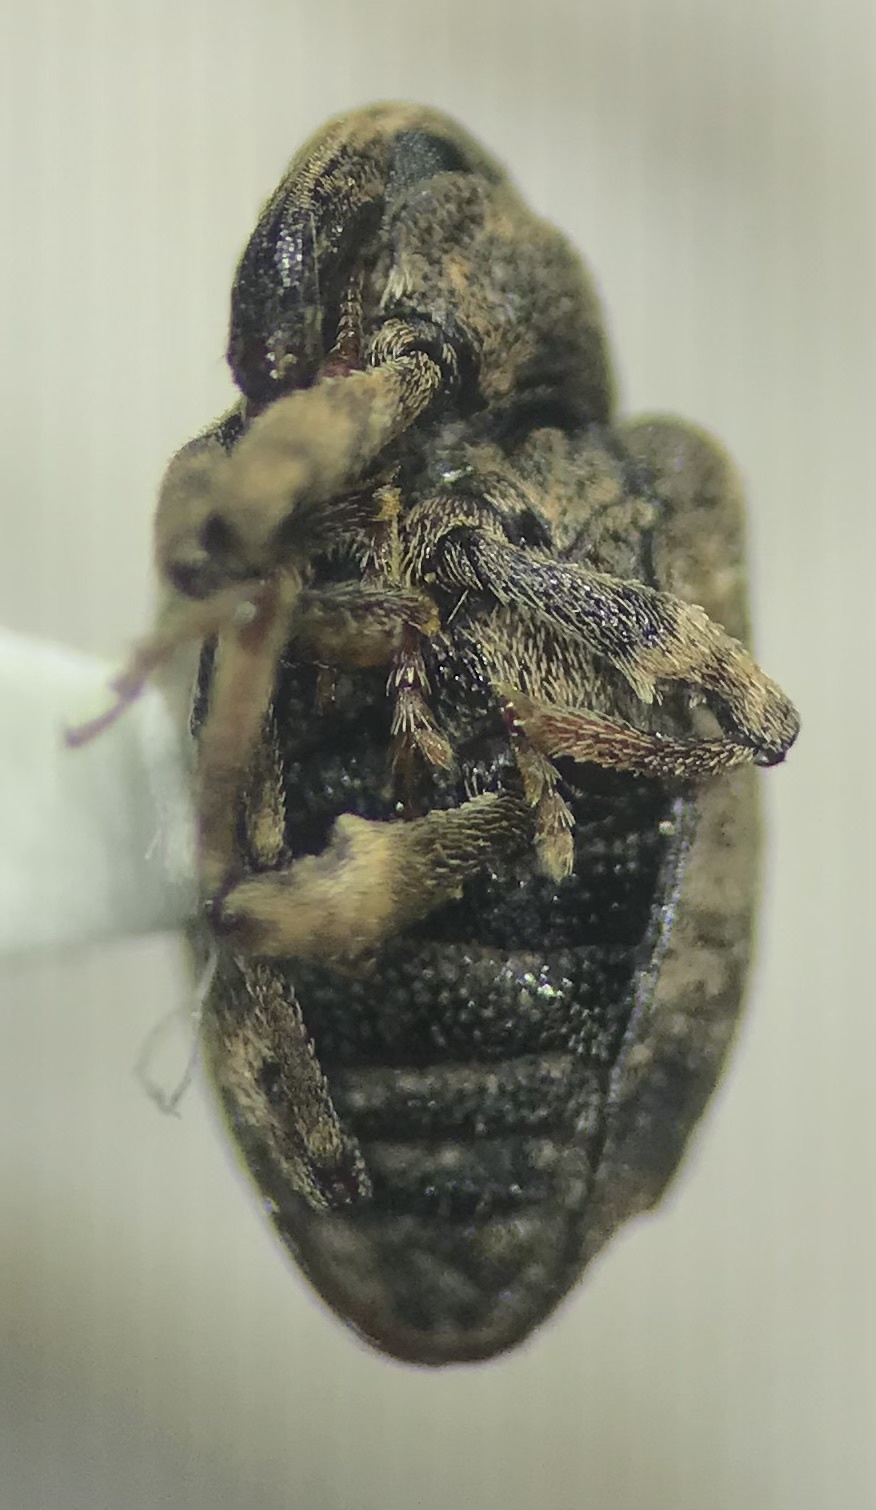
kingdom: Animalia
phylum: Arthropoda
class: Insecta
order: Coleoptera
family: Curculionidae
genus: Conotrachelus
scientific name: Conotrachelus seniculus
